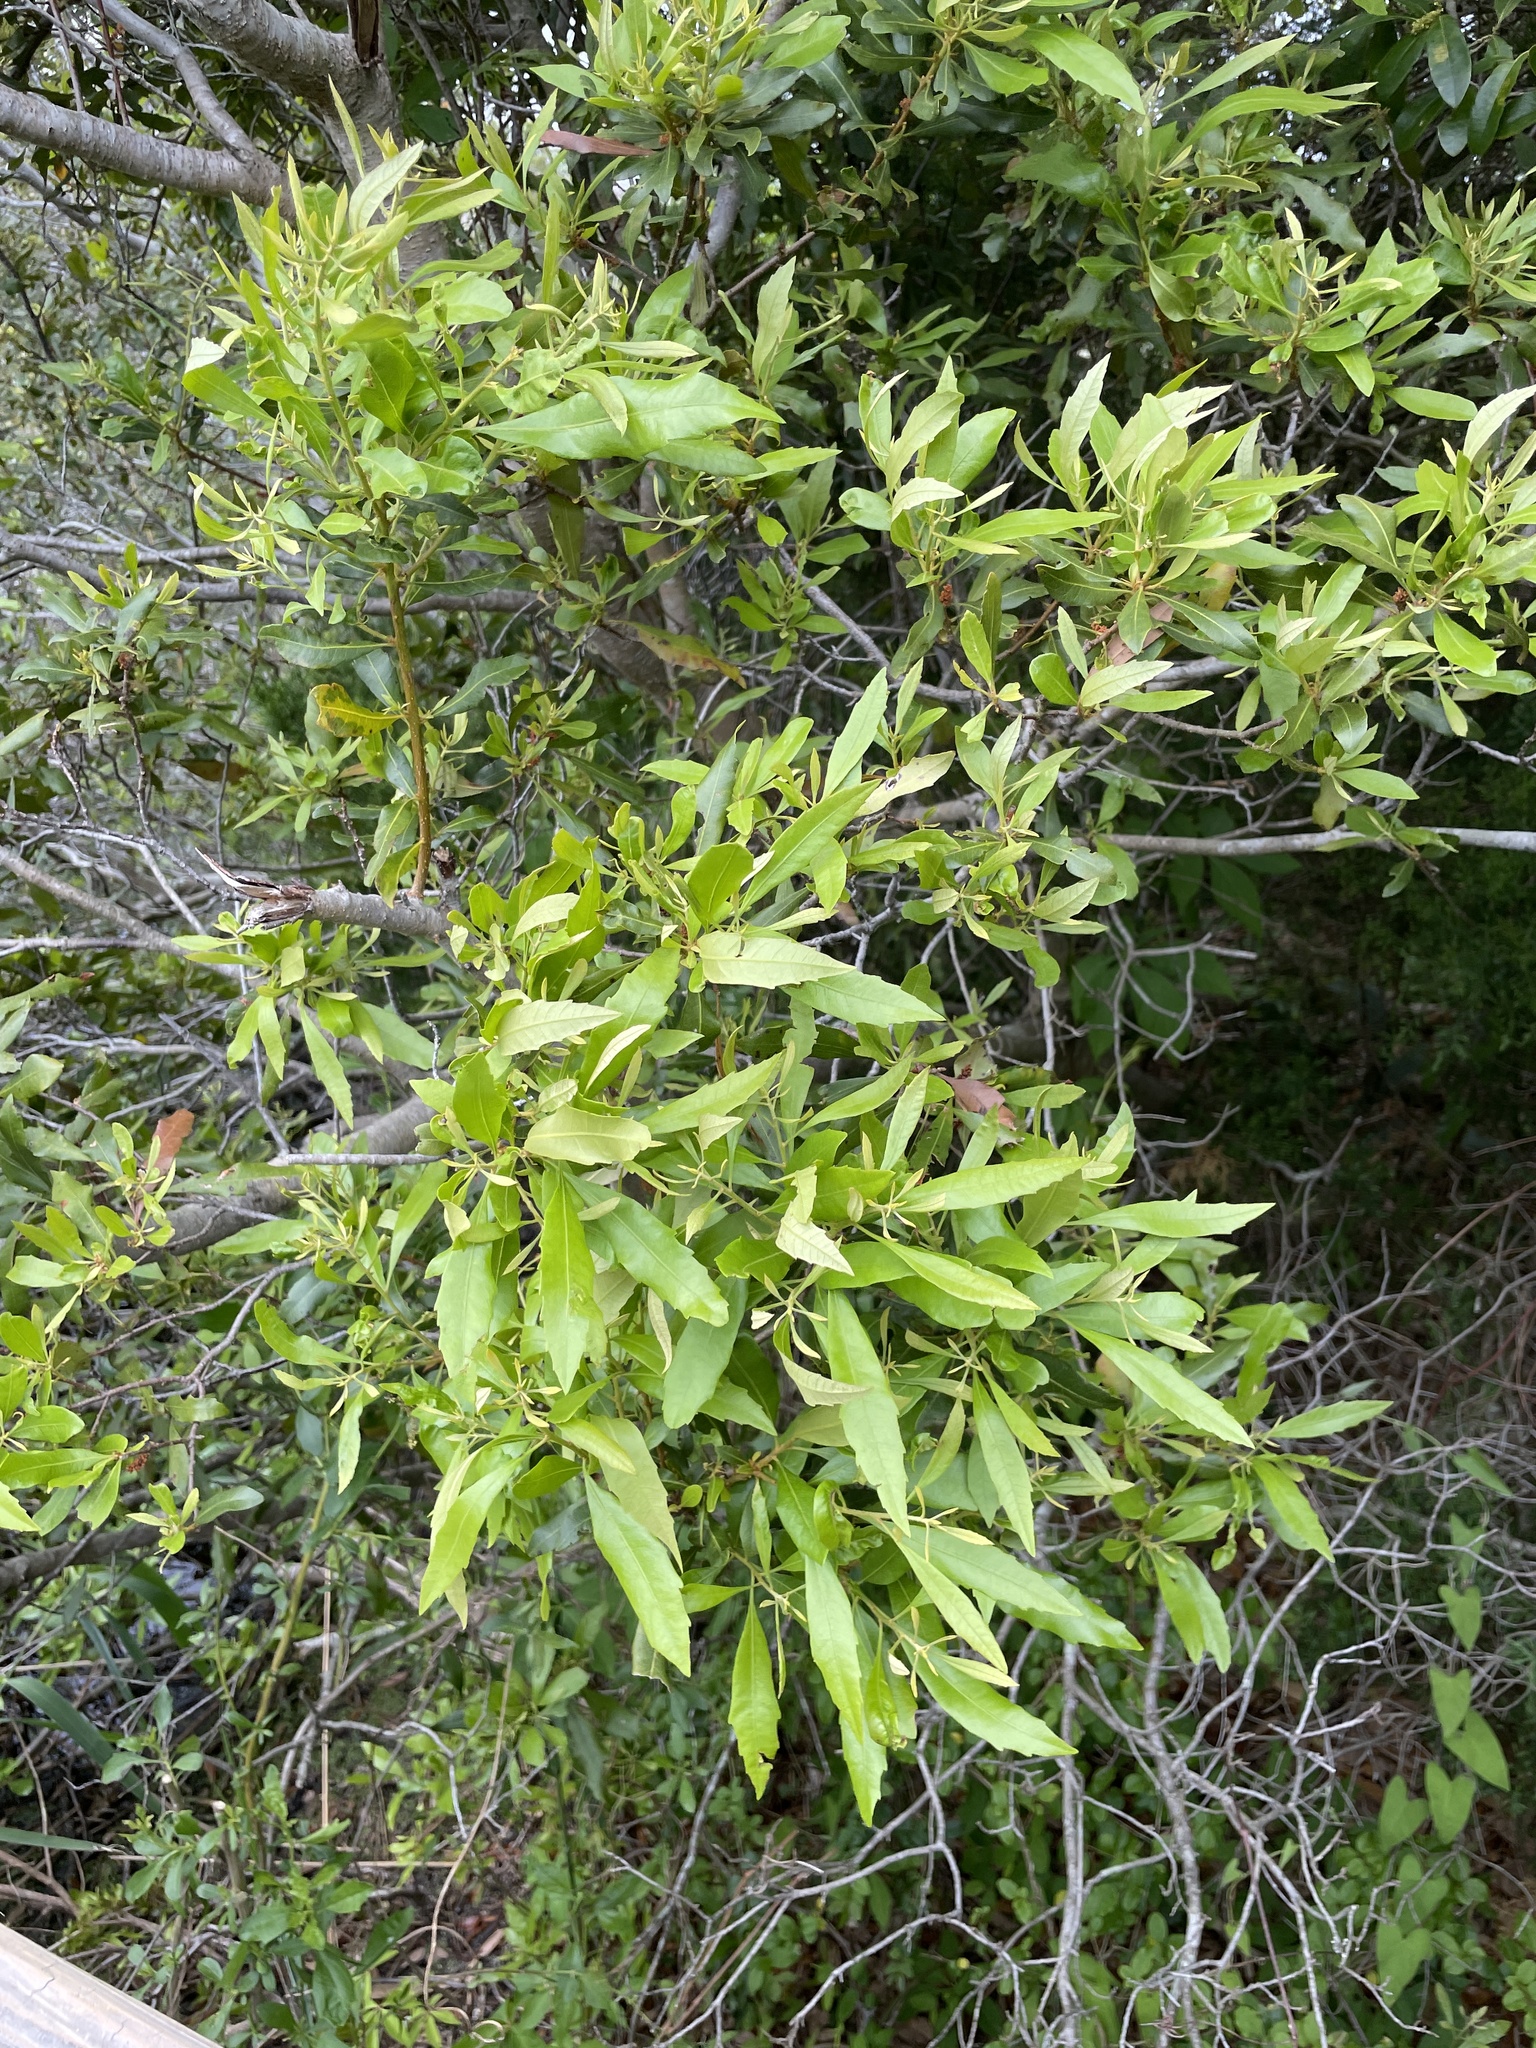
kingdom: Plantae
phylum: Tracheophyta
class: Magnoliopsida
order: Fagales
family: Myricaceae
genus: Morella
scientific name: Morella cerifera
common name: Wax myrtle
